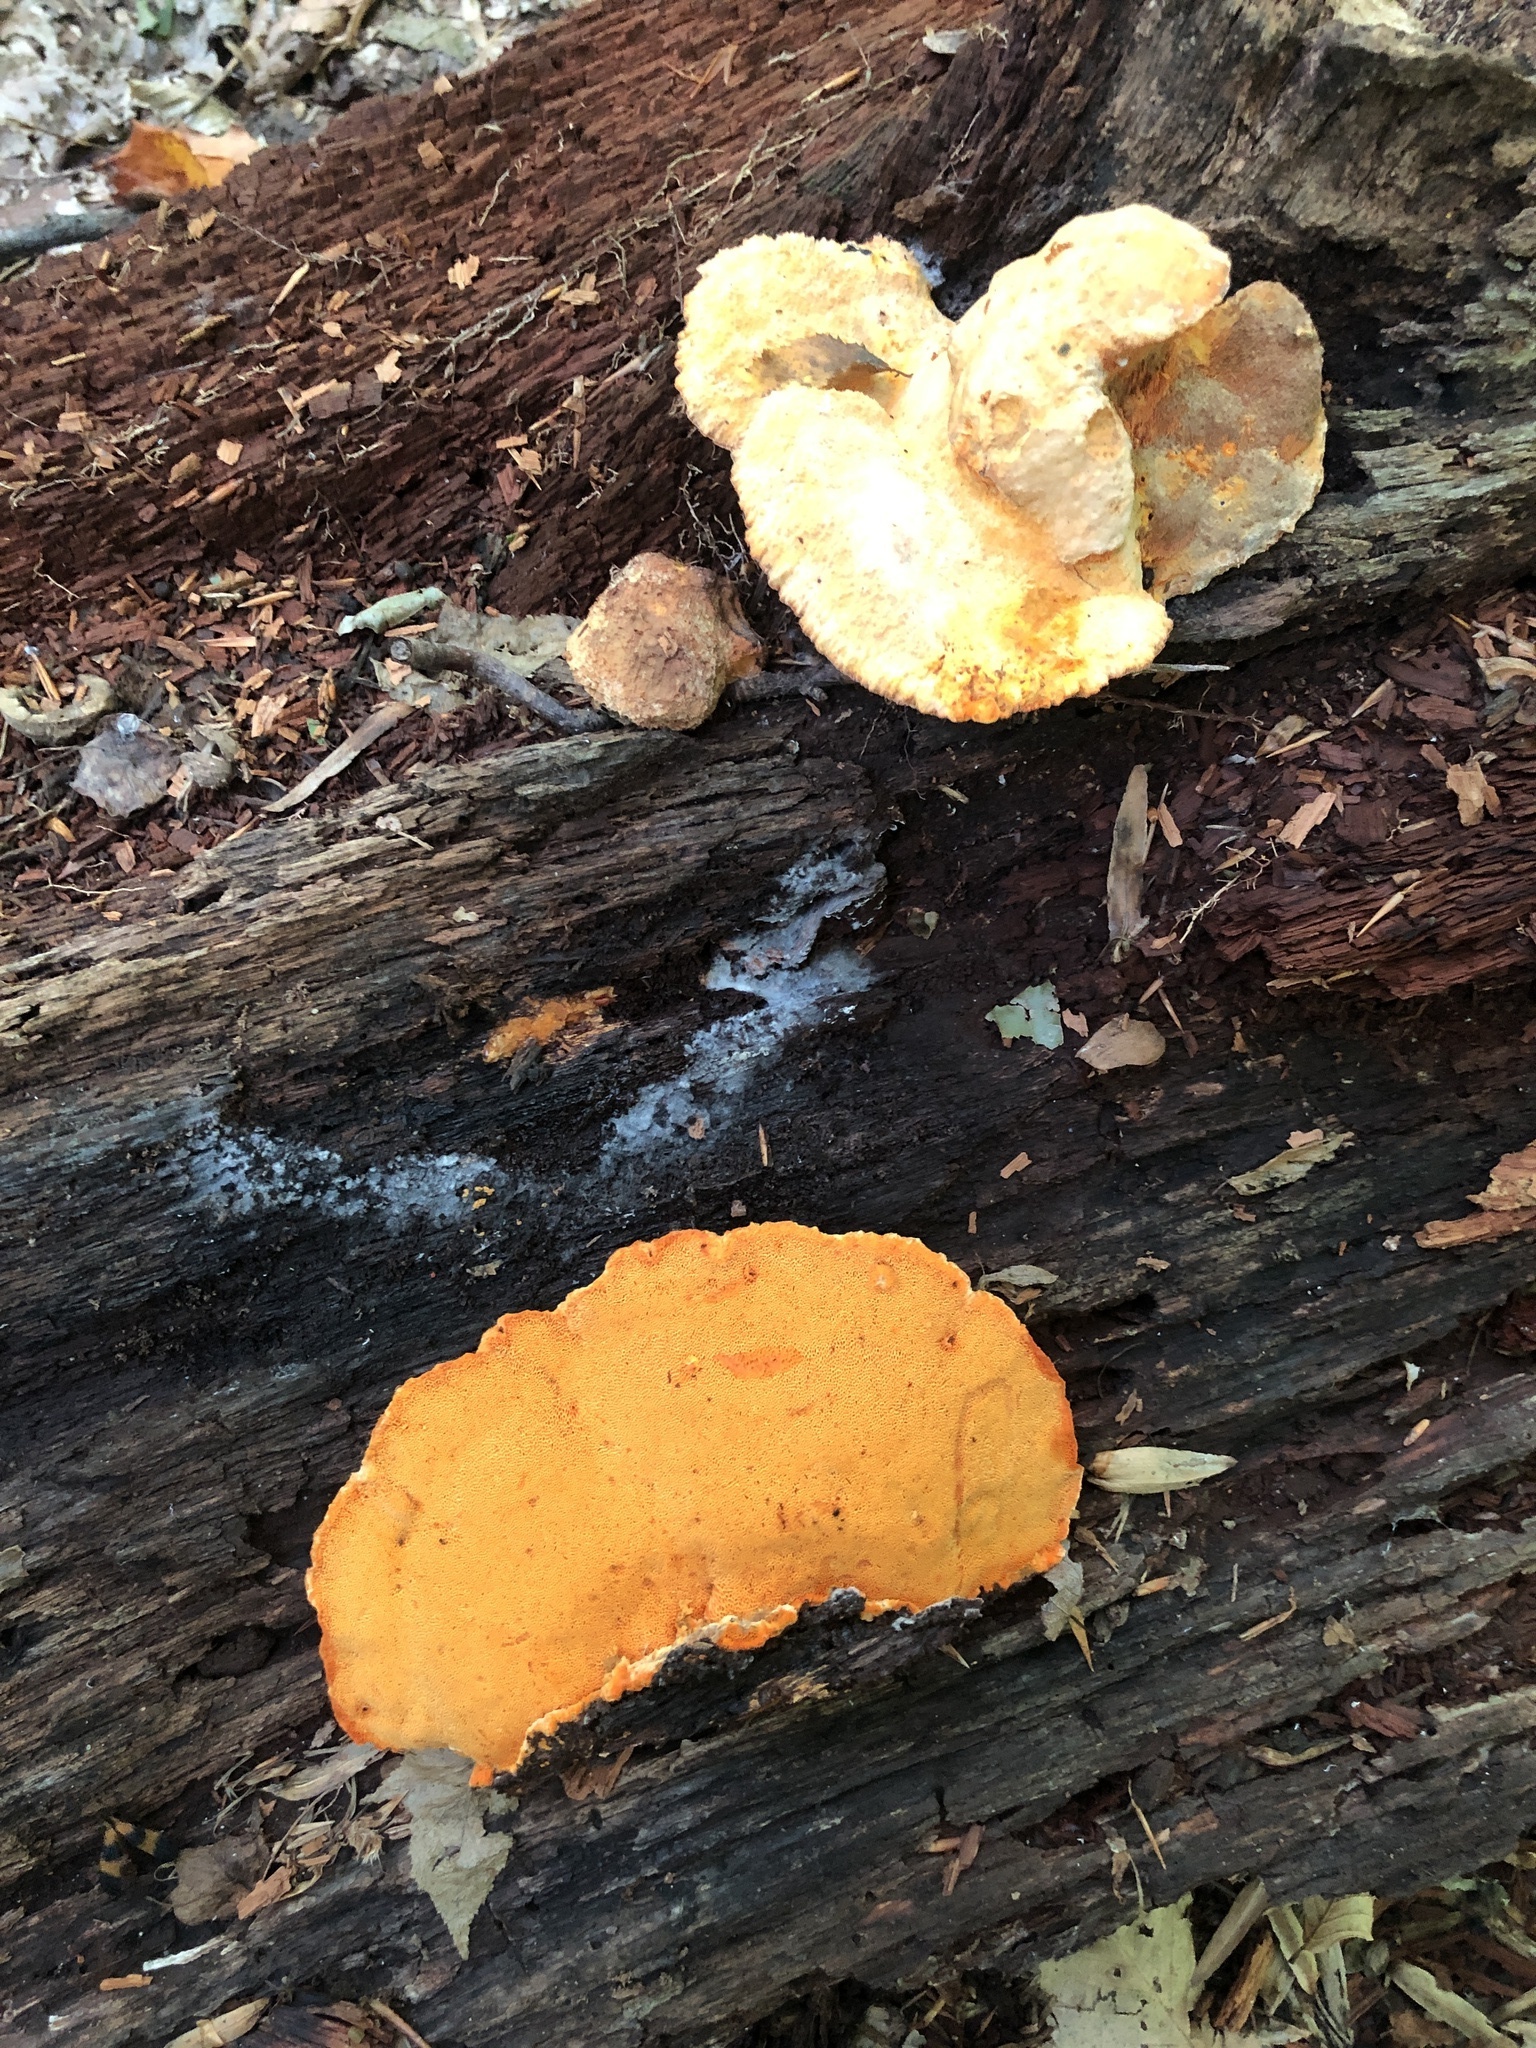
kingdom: Fungi
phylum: Basidiomycota
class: Agaricomycetes
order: Polyporales
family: Phanerochaetaceae
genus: Hapalopilus
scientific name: Hapalopilus croceus
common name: Orange polypore
